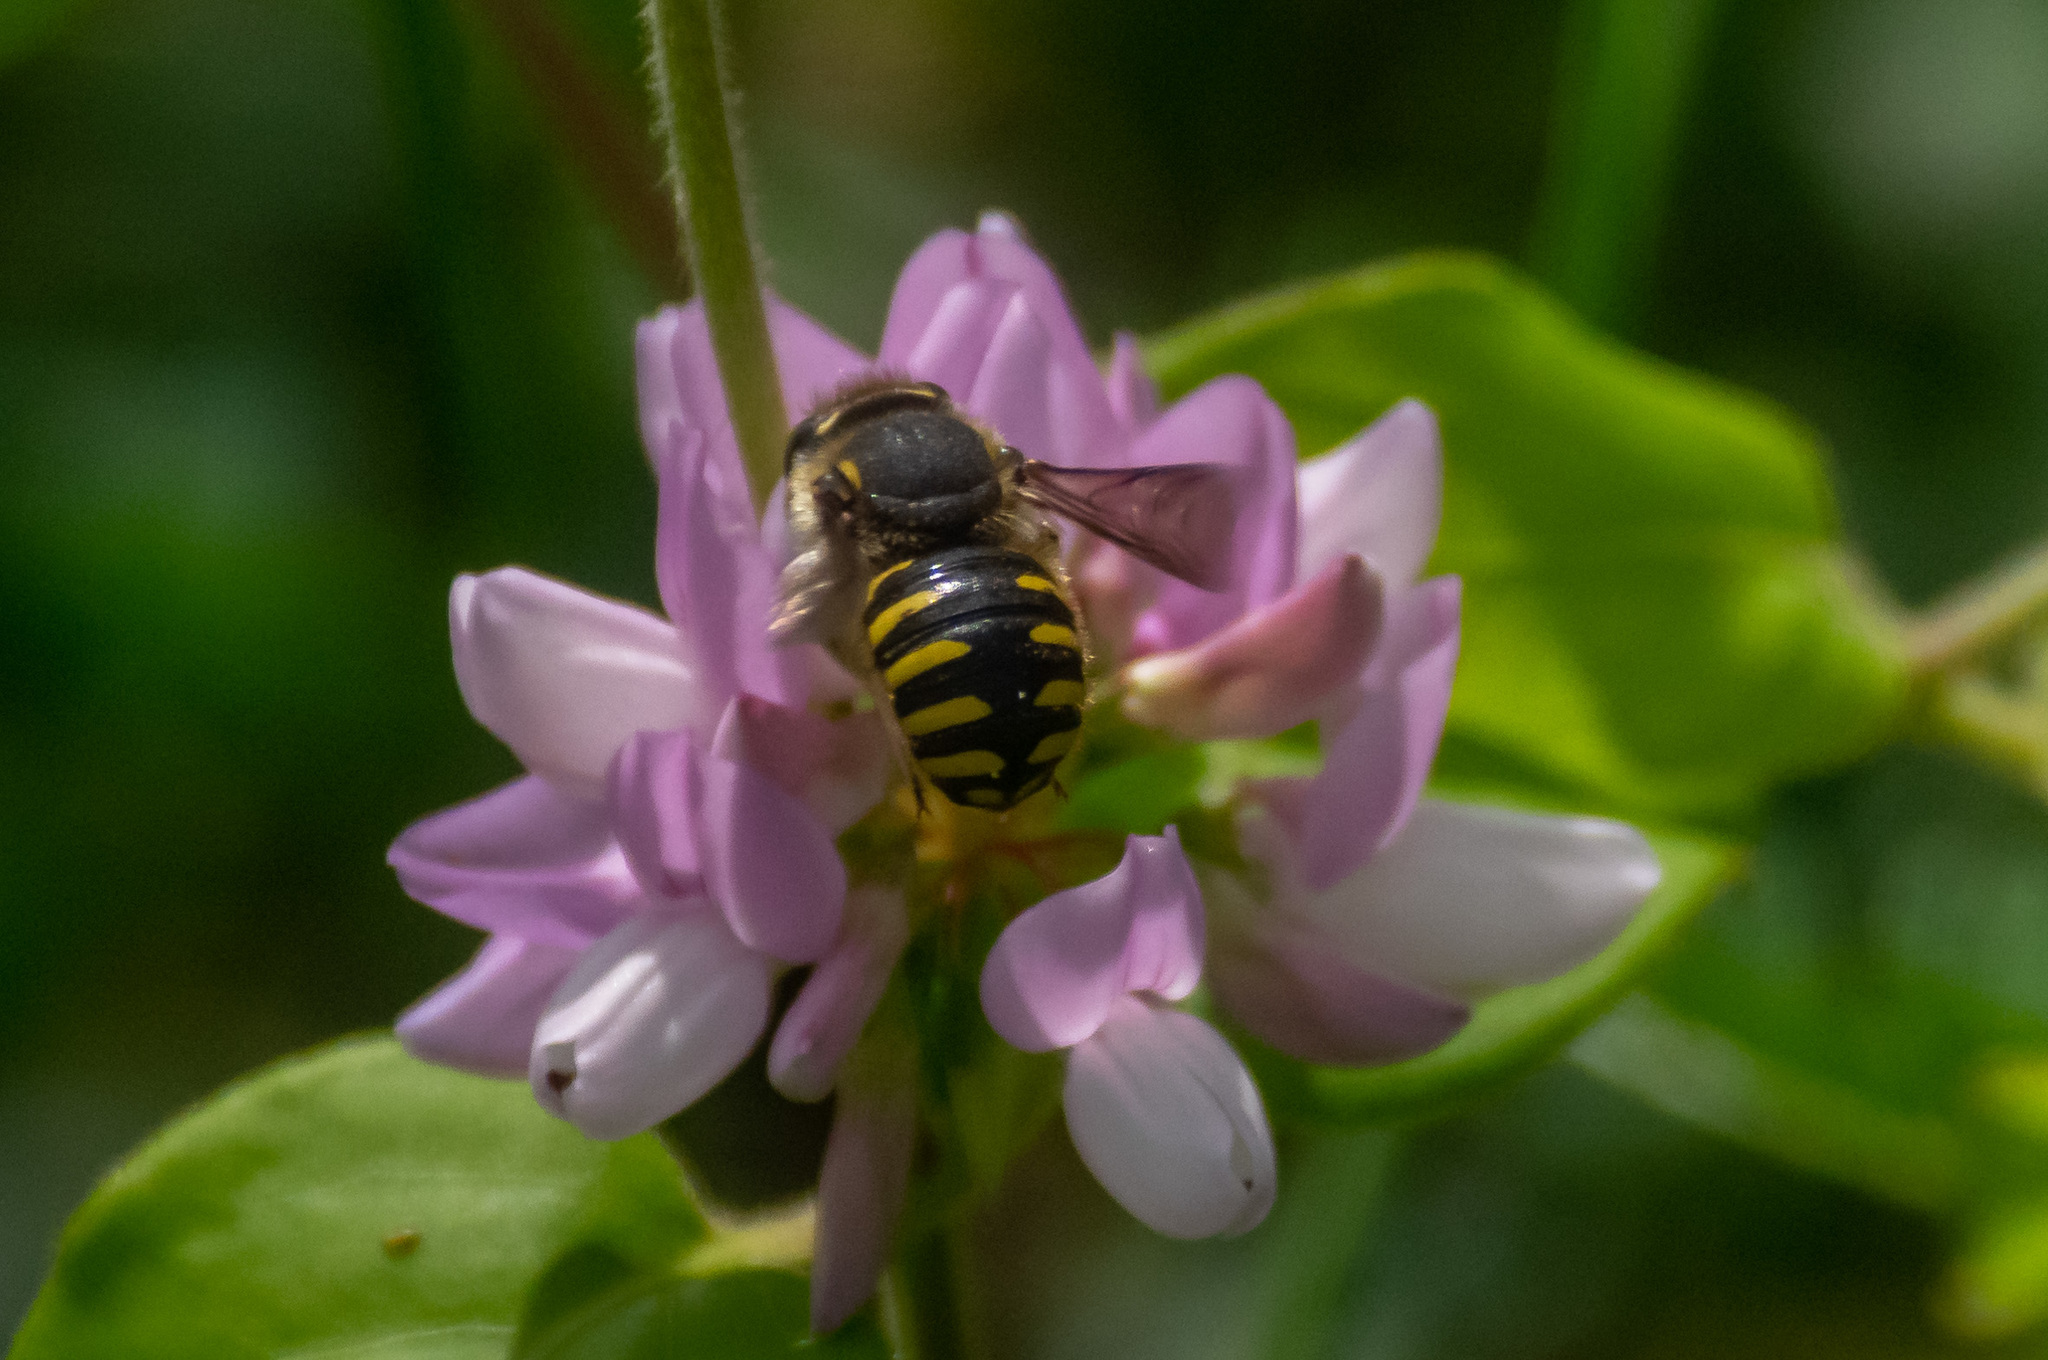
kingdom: Animalia
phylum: Arthropoda
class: Insecta
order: Hymenoptera
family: Megachilidae
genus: Anthidium
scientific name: Anthidium manicatum
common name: Wool carder bee
